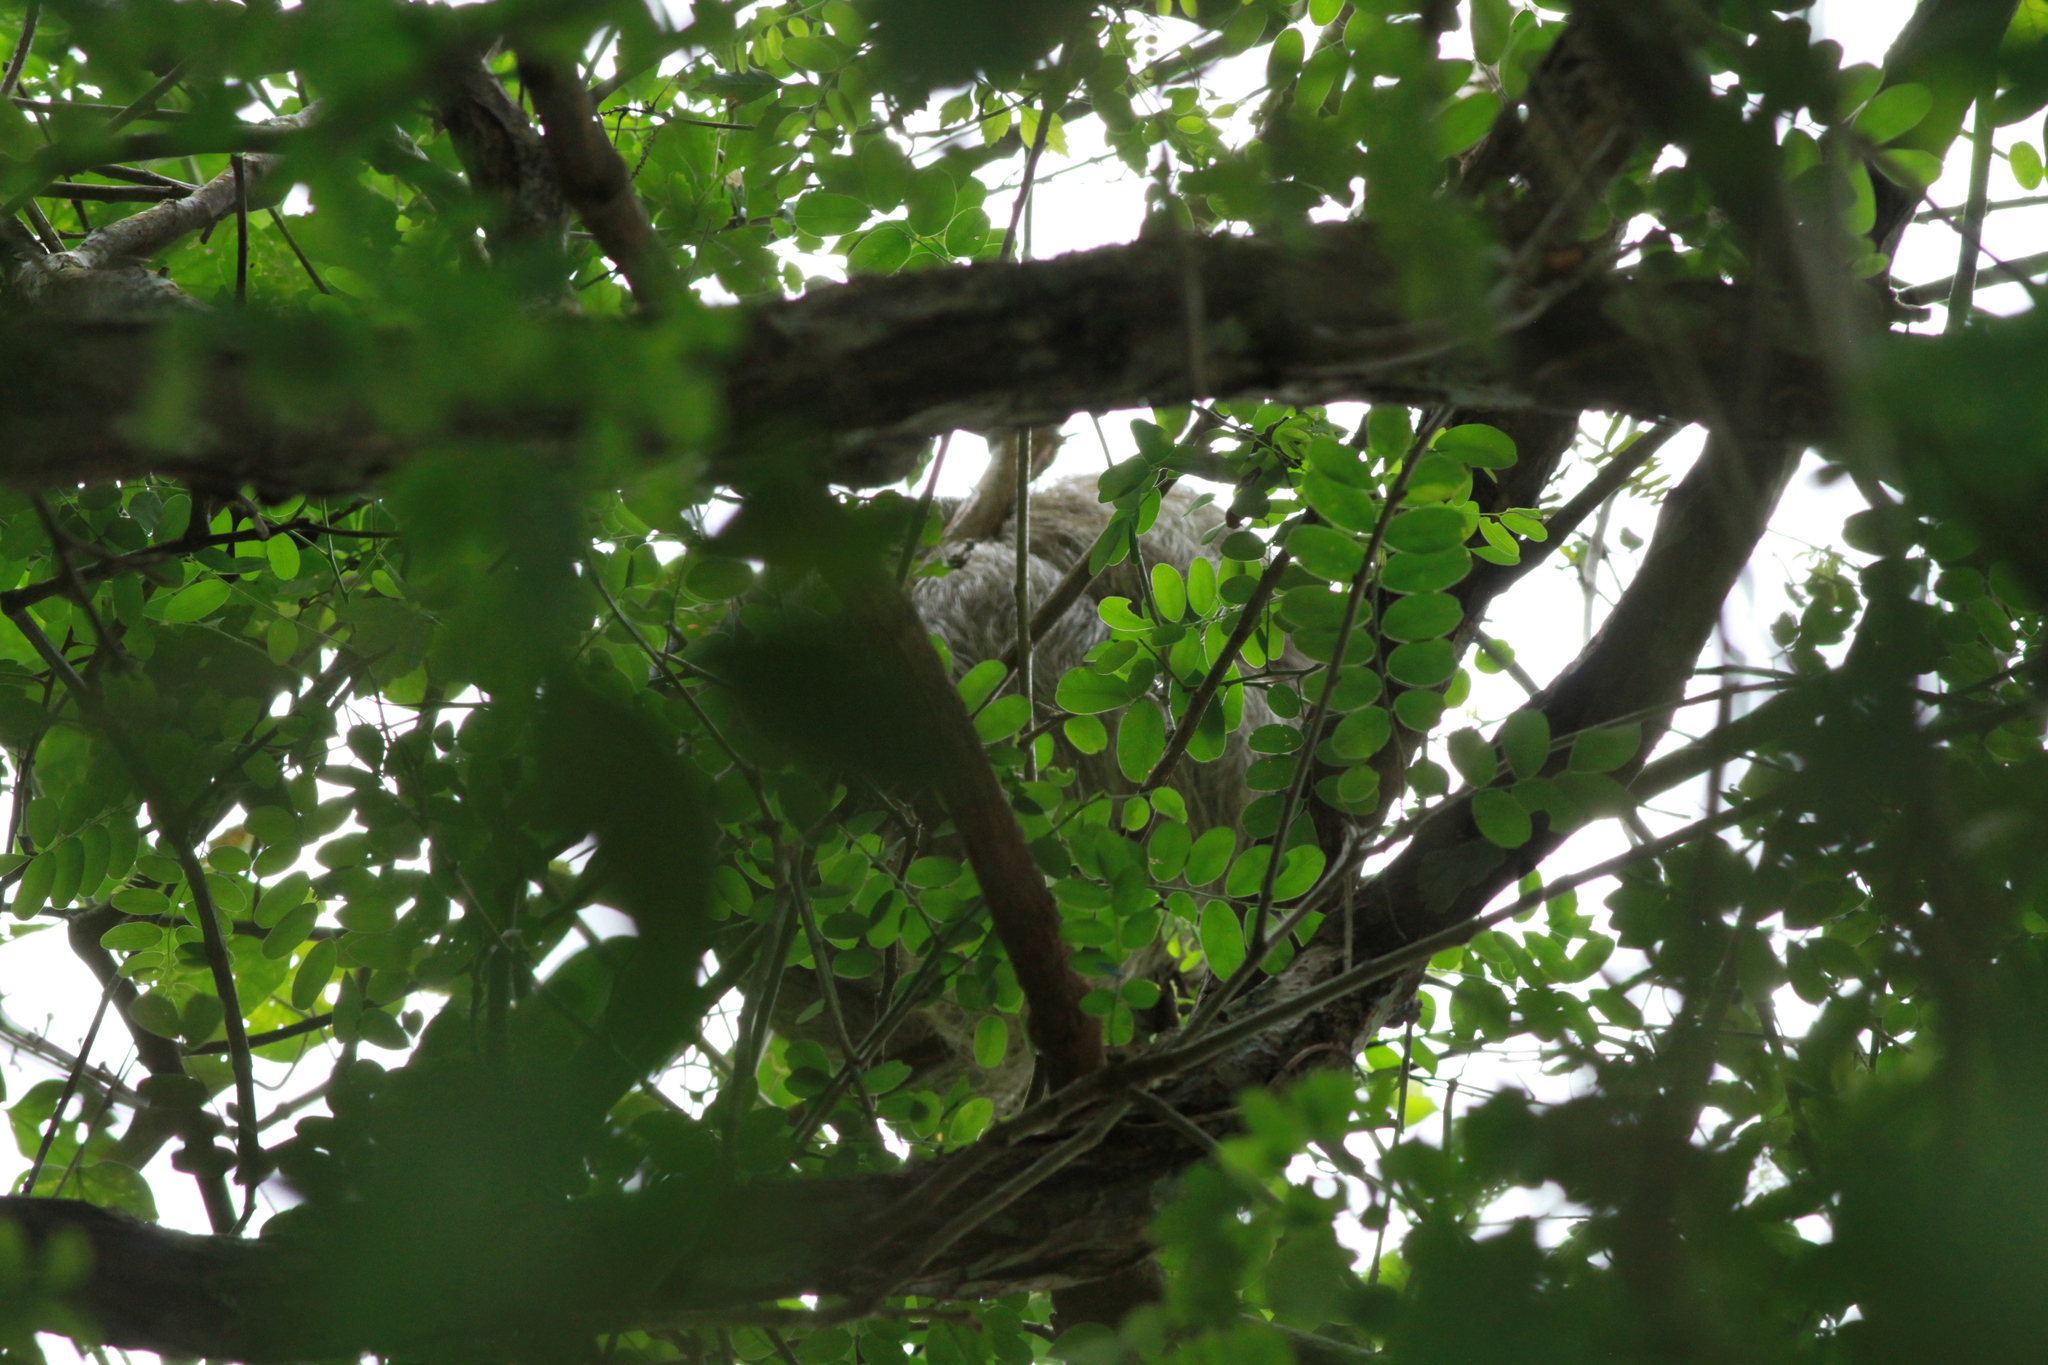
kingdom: Animalia
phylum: Chordata
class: Mammalia
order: Pilosa
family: Megalonychidae
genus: Choloepus
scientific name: Choloepus hoffmanni
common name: Hoffmann's two-toed sloth
